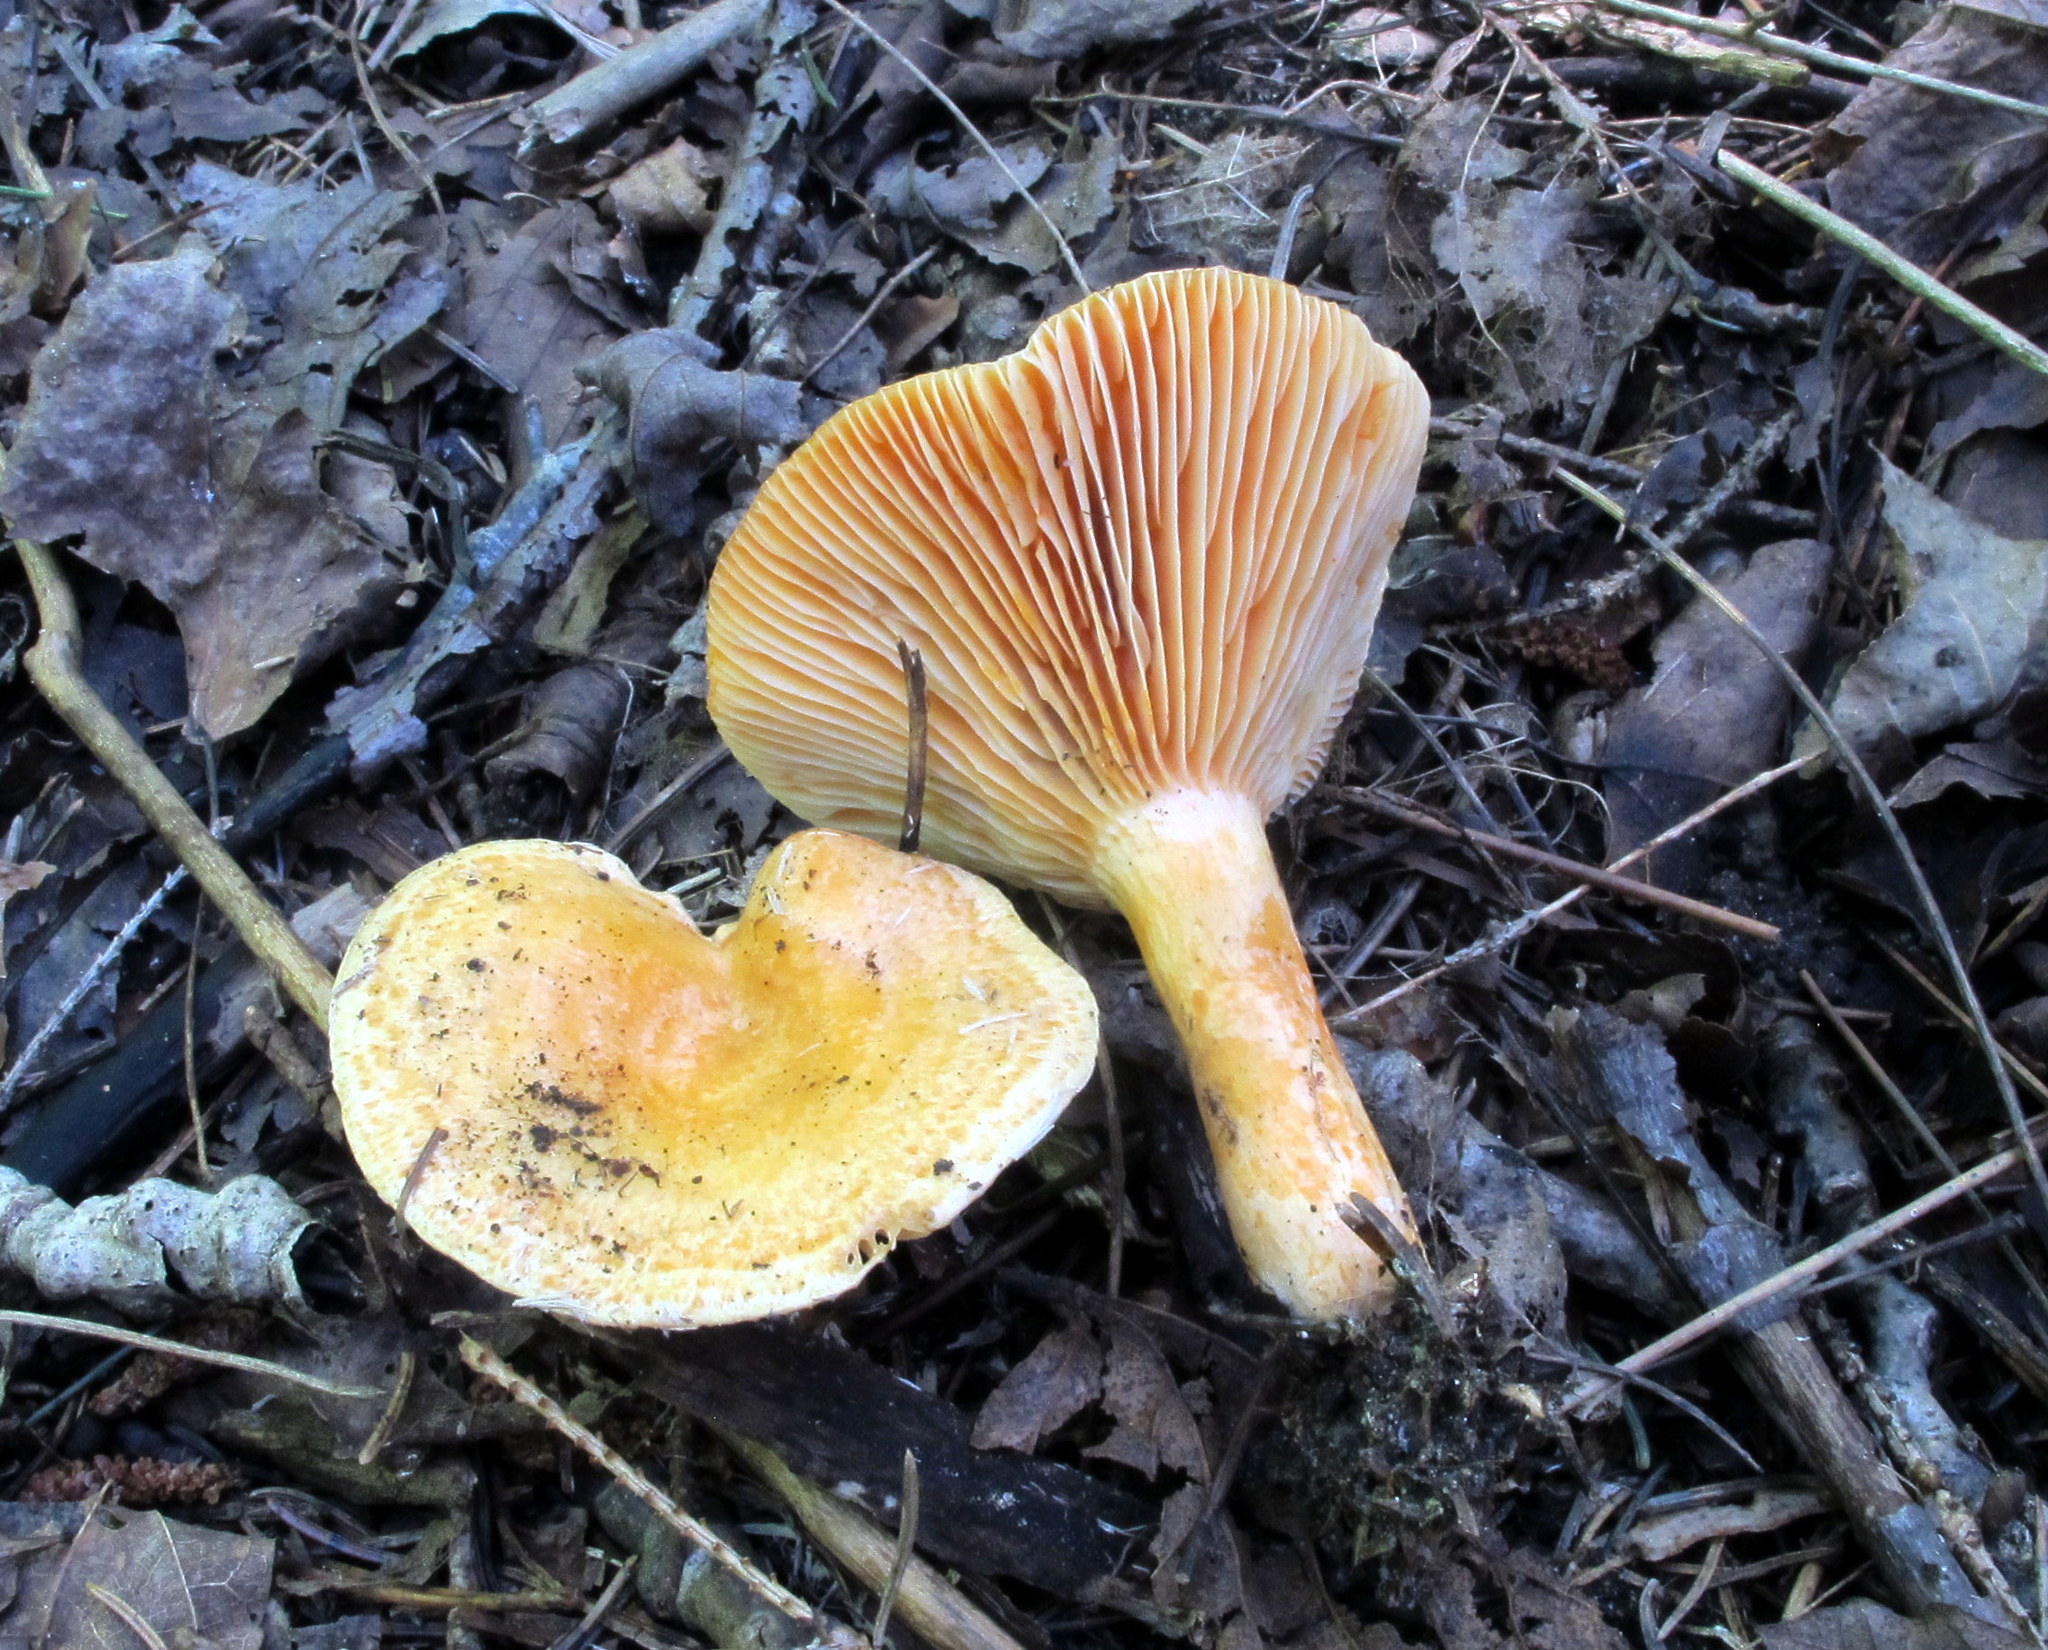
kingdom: Fungi
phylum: Basidiomycota
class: Agaricomycetes
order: Russulales
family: Russulaceae
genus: Lactarius
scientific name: Lactarius salmonicolor
